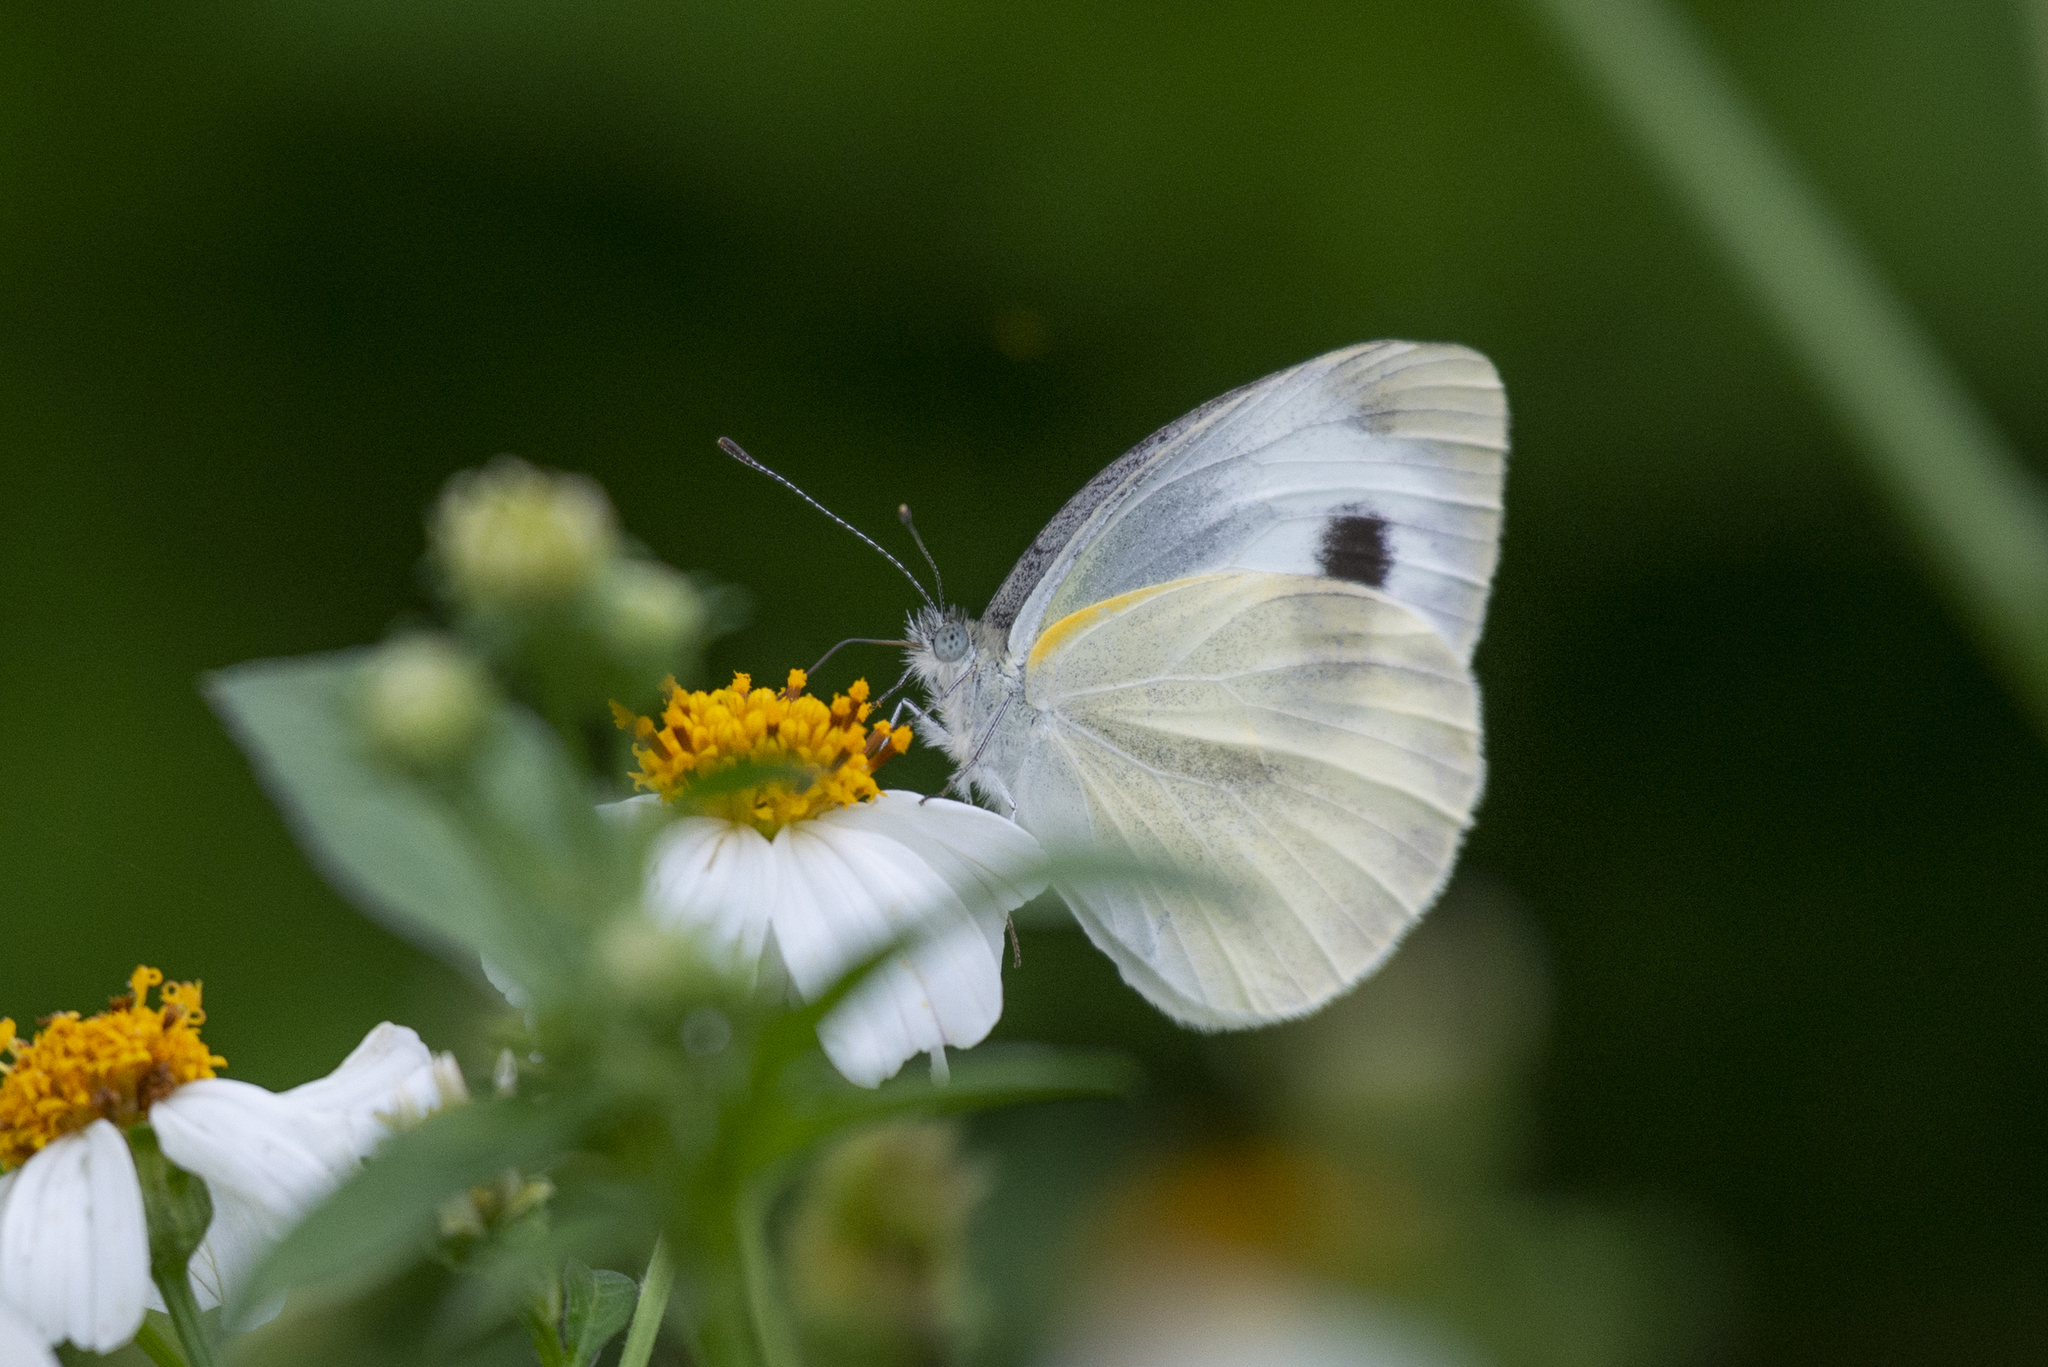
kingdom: Animalia
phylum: Arthropoda
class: Insecta
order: Lepidoptera
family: Pieridae
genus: Pieris
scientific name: Pieris canidia
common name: Indian cabbage white
